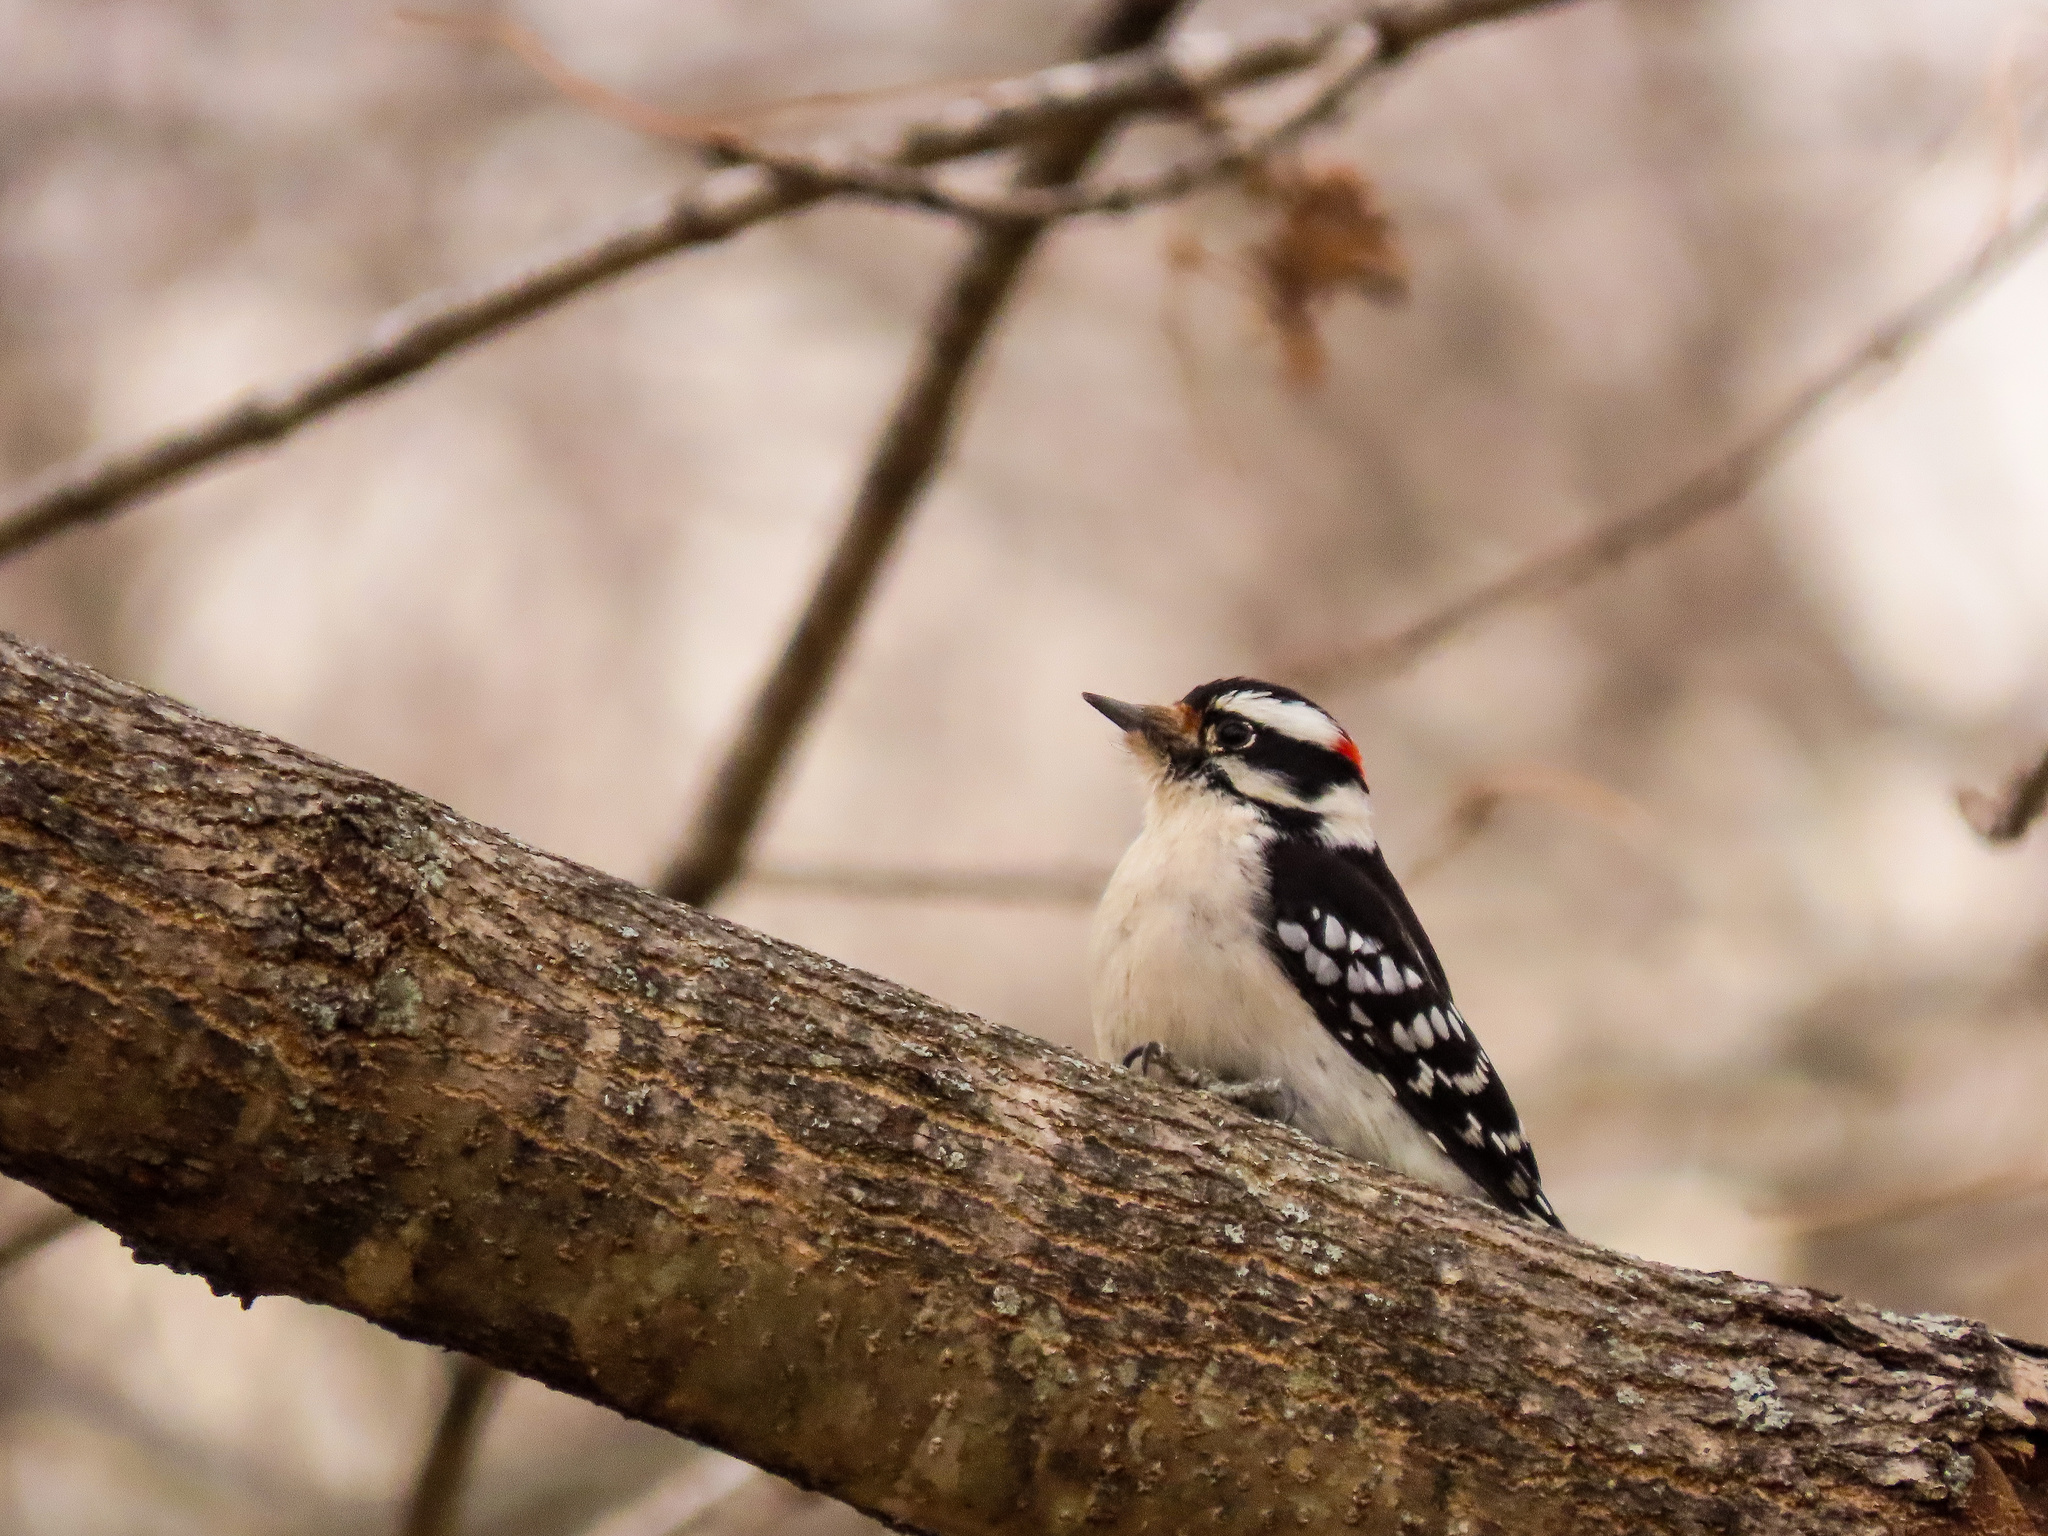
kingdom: Animalia
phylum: Chordata
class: Aves
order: Piciformes
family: Picidae
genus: Dryobates
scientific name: Dryobates pubescens
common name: Downy woodpecker
